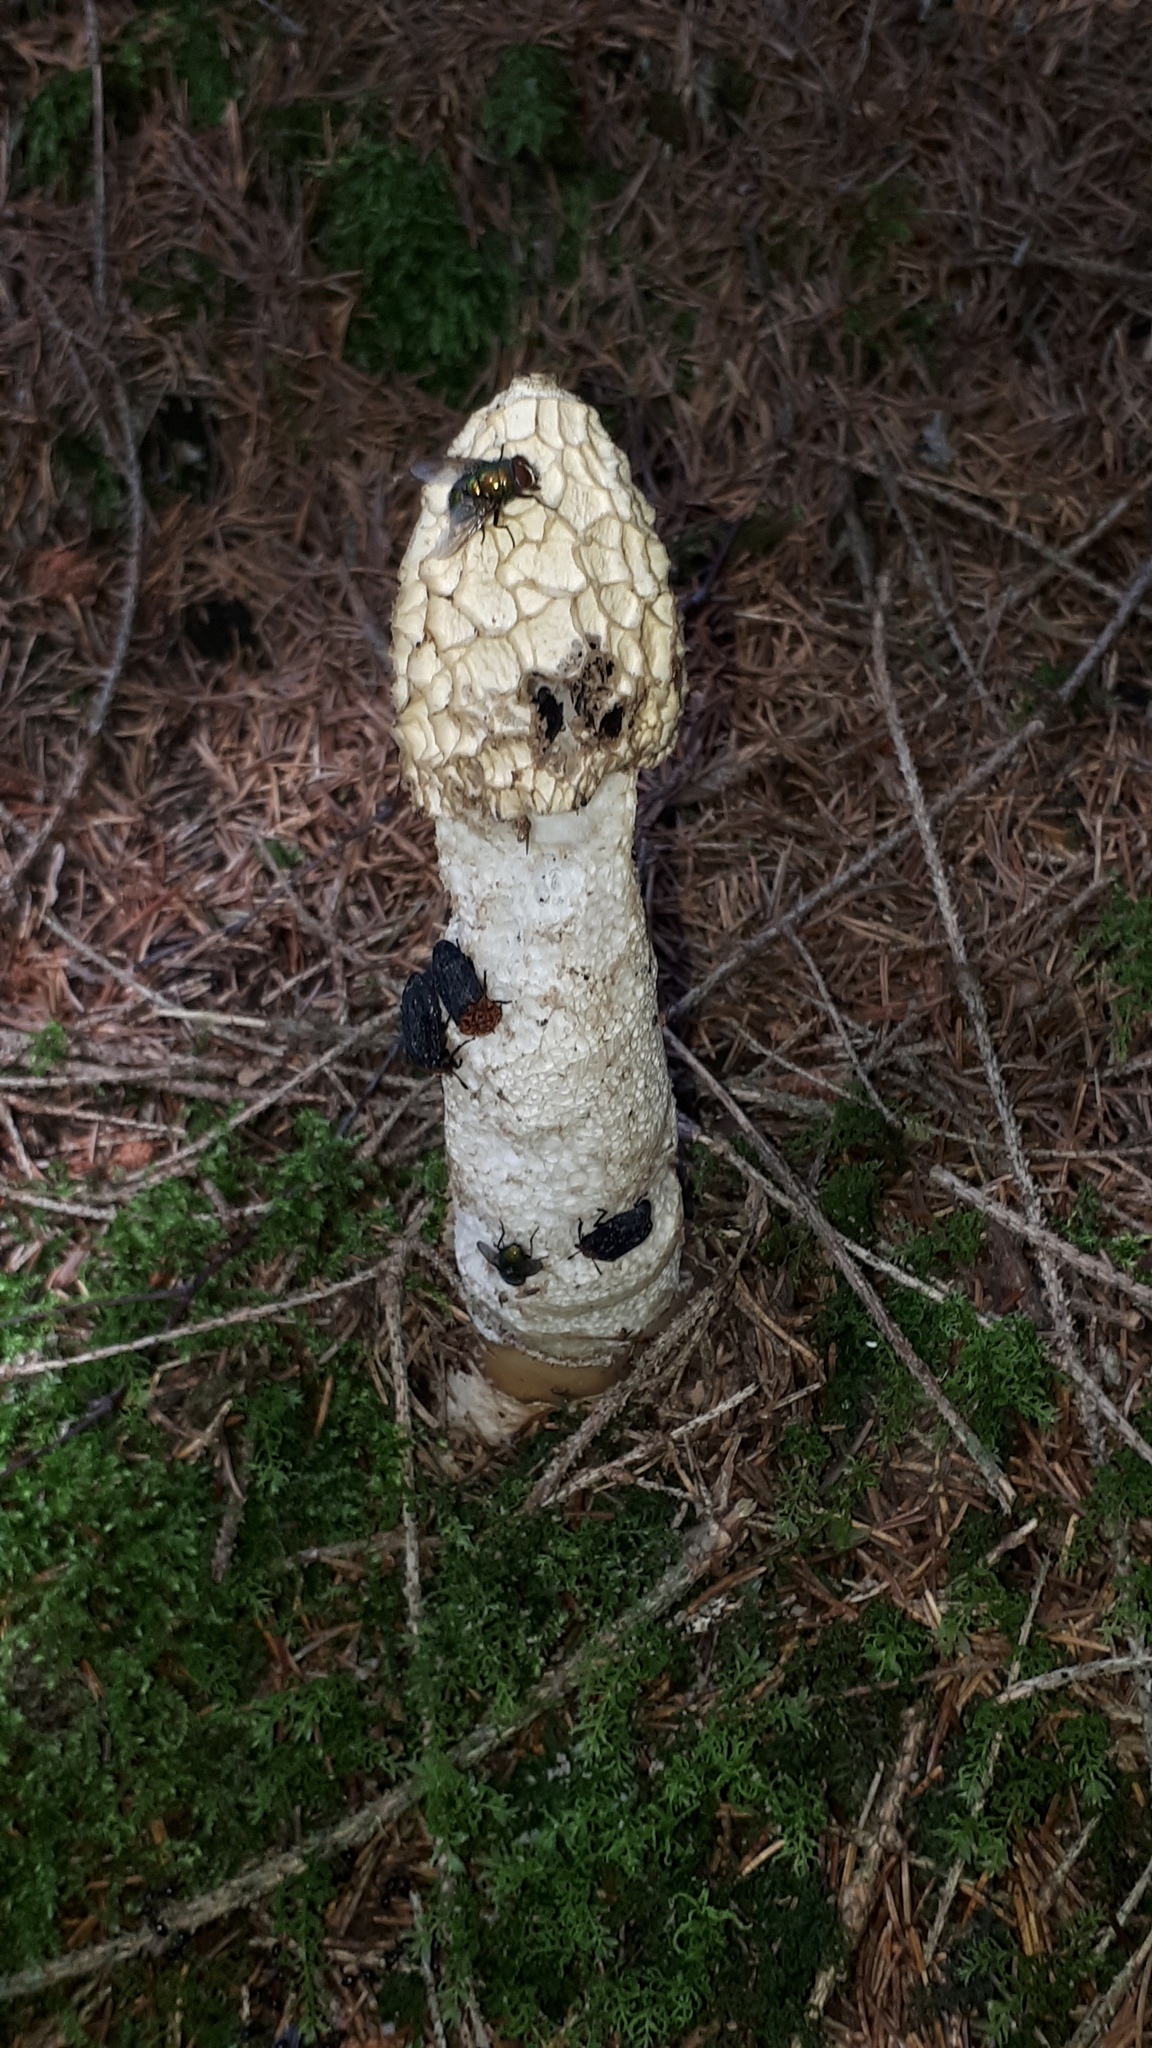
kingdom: Fungi
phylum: Basidiomycota
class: Agaricomycetes
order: Phallales
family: Phallaceae
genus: Phallus
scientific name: Phallus impudicus
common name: Common stinkhorn
